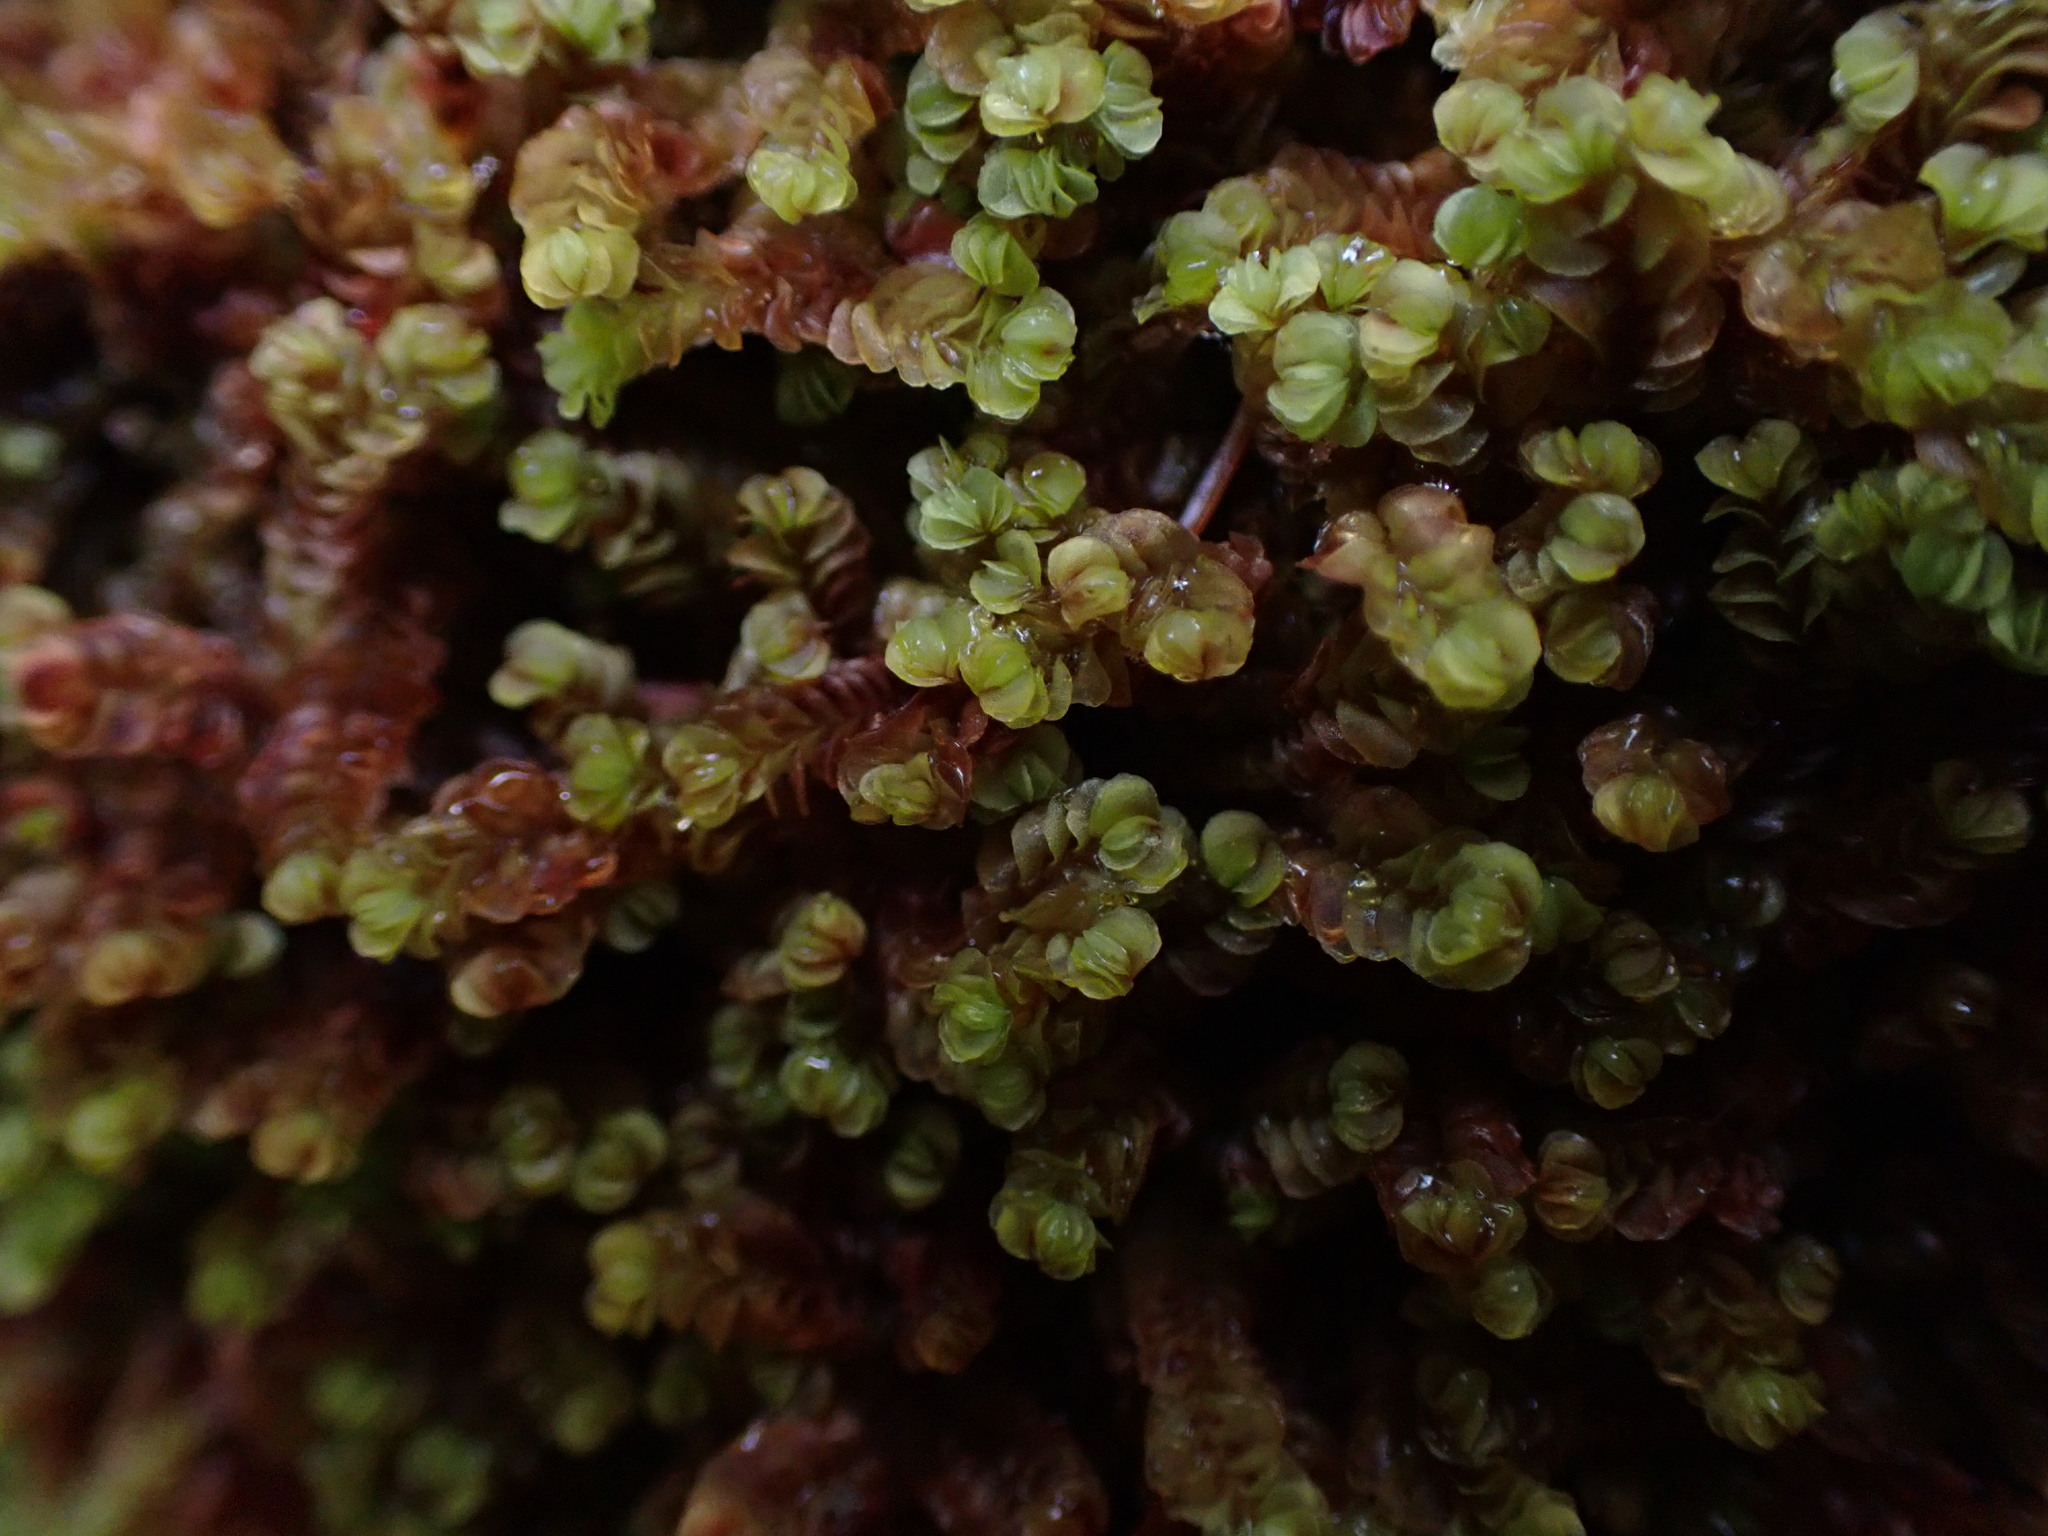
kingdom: Plantae
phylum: Marchantiophyta
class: Jungermanniopsida
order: Jungermanniales
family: Myliaceae
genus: Mylia
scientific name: Mylia taylorii
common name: Taylor s flapwort
